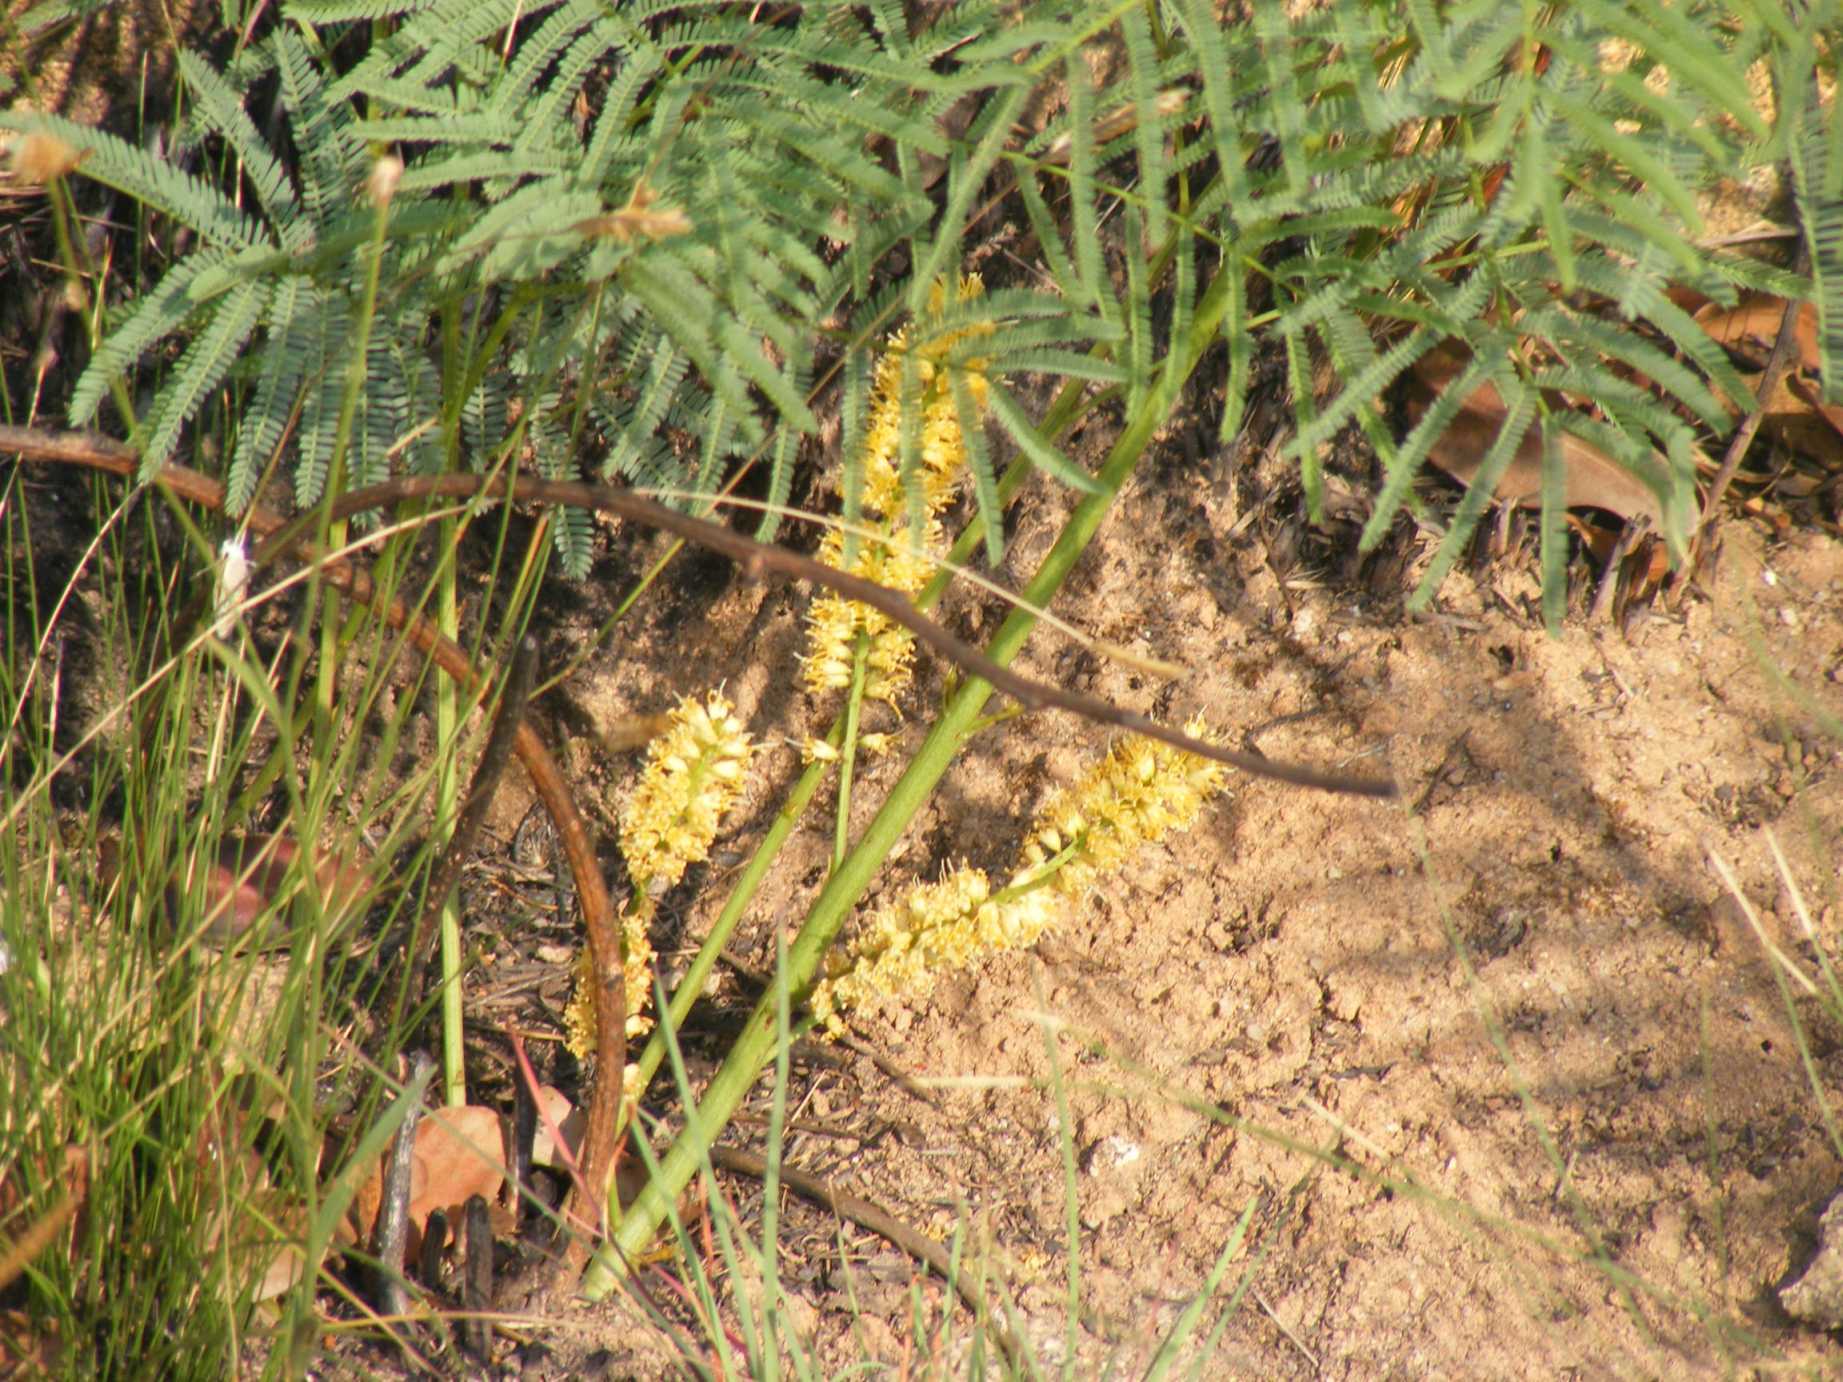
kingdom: Plantae
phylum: Tracheophyta
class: Magnoliopsida
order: Fabales
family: Fabaceae
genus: Elephantorrhiza
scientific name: Elephantorrhiza elephantina
